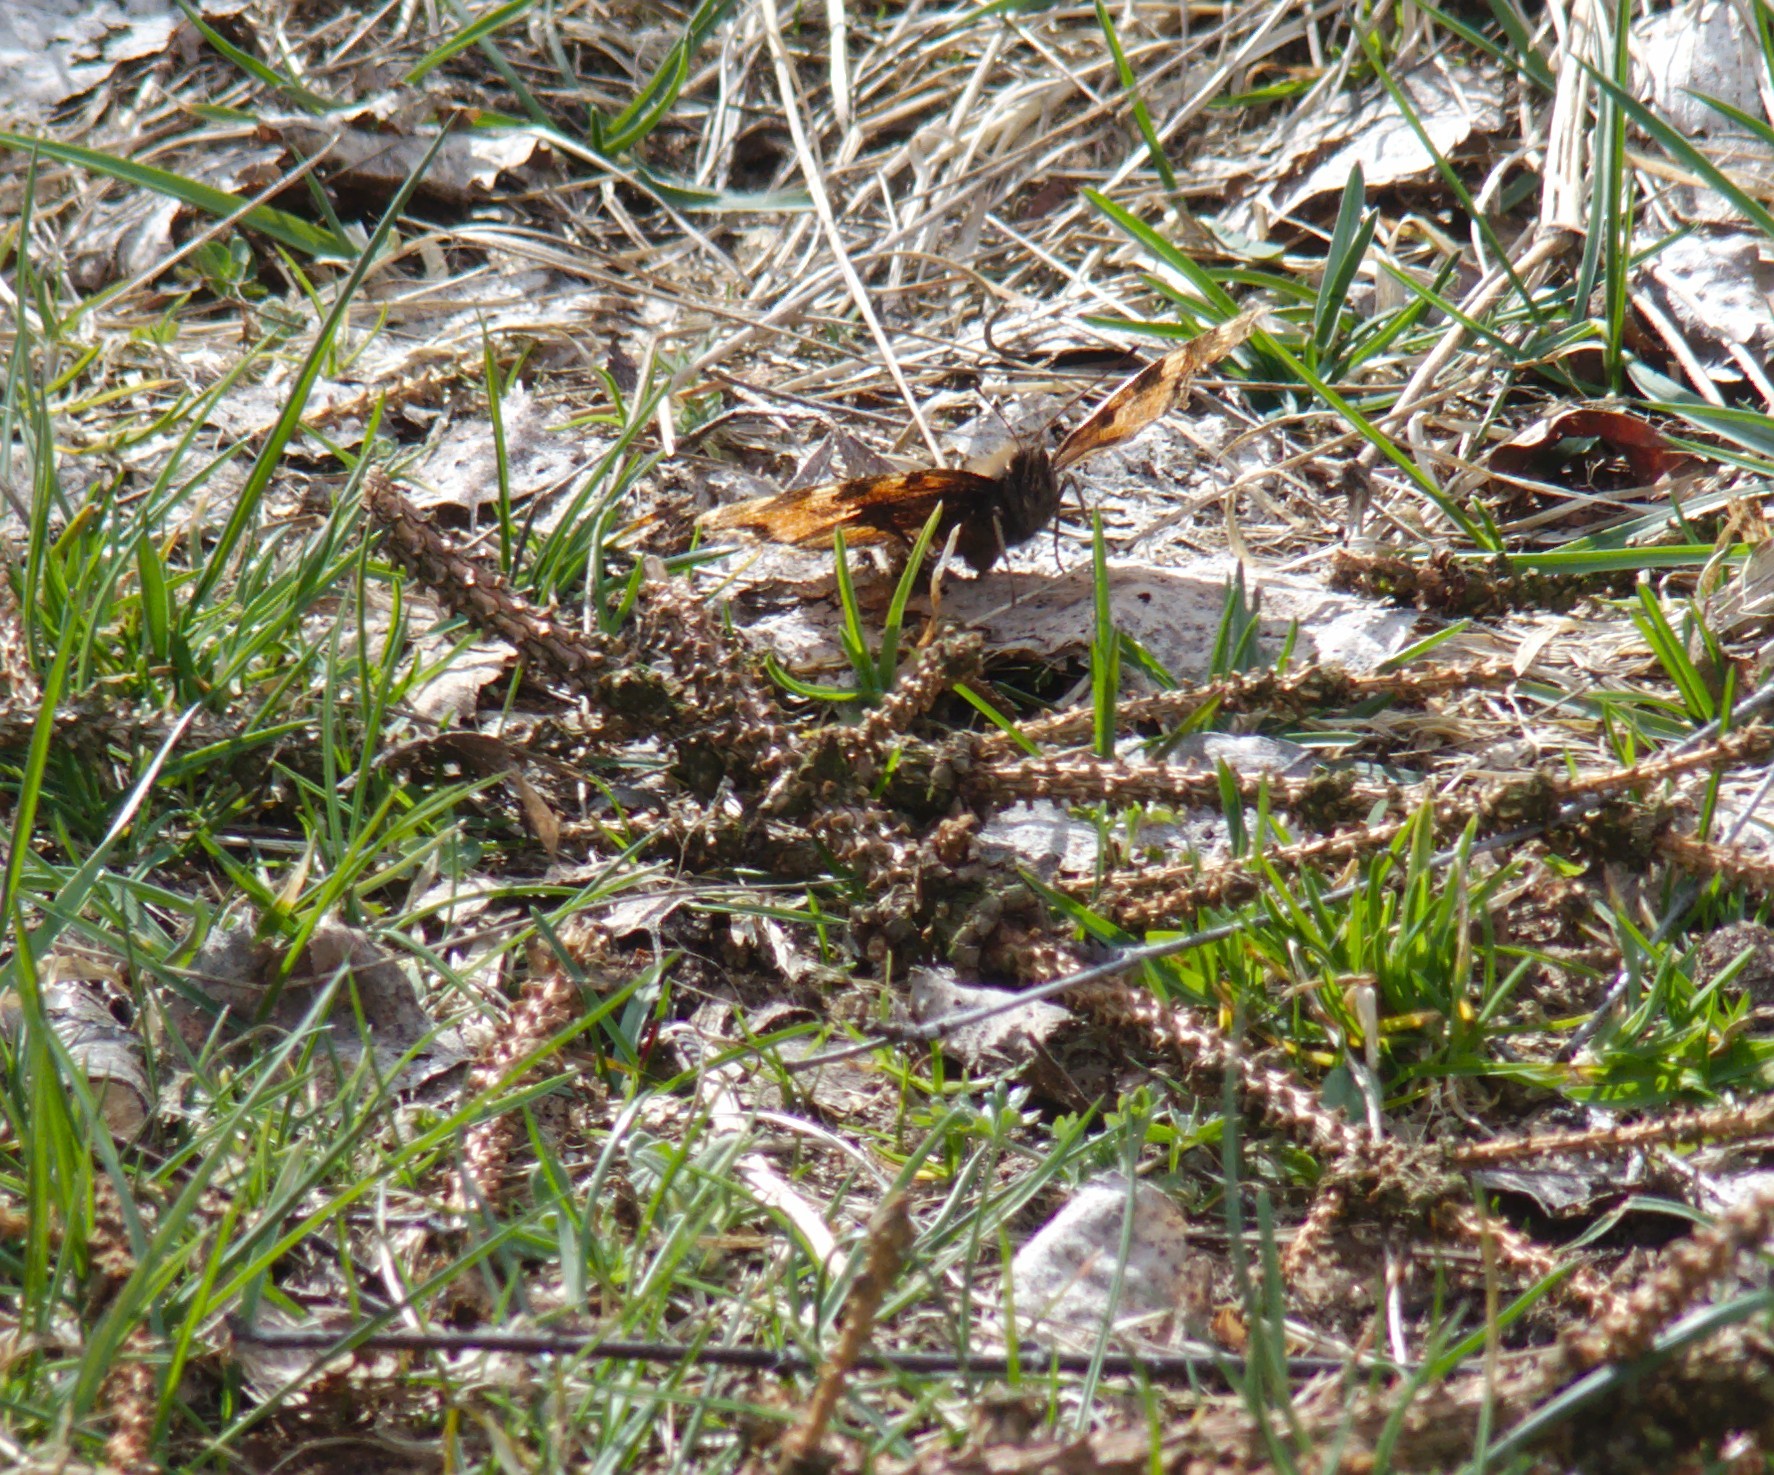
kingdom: Animalia
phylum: Arthropoda
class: Insecta
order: Lepidoptera
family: Nymphalidae
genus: Nymphalis
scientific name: Nymphalis xanthomelas
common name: Scarce tortoiseshell
